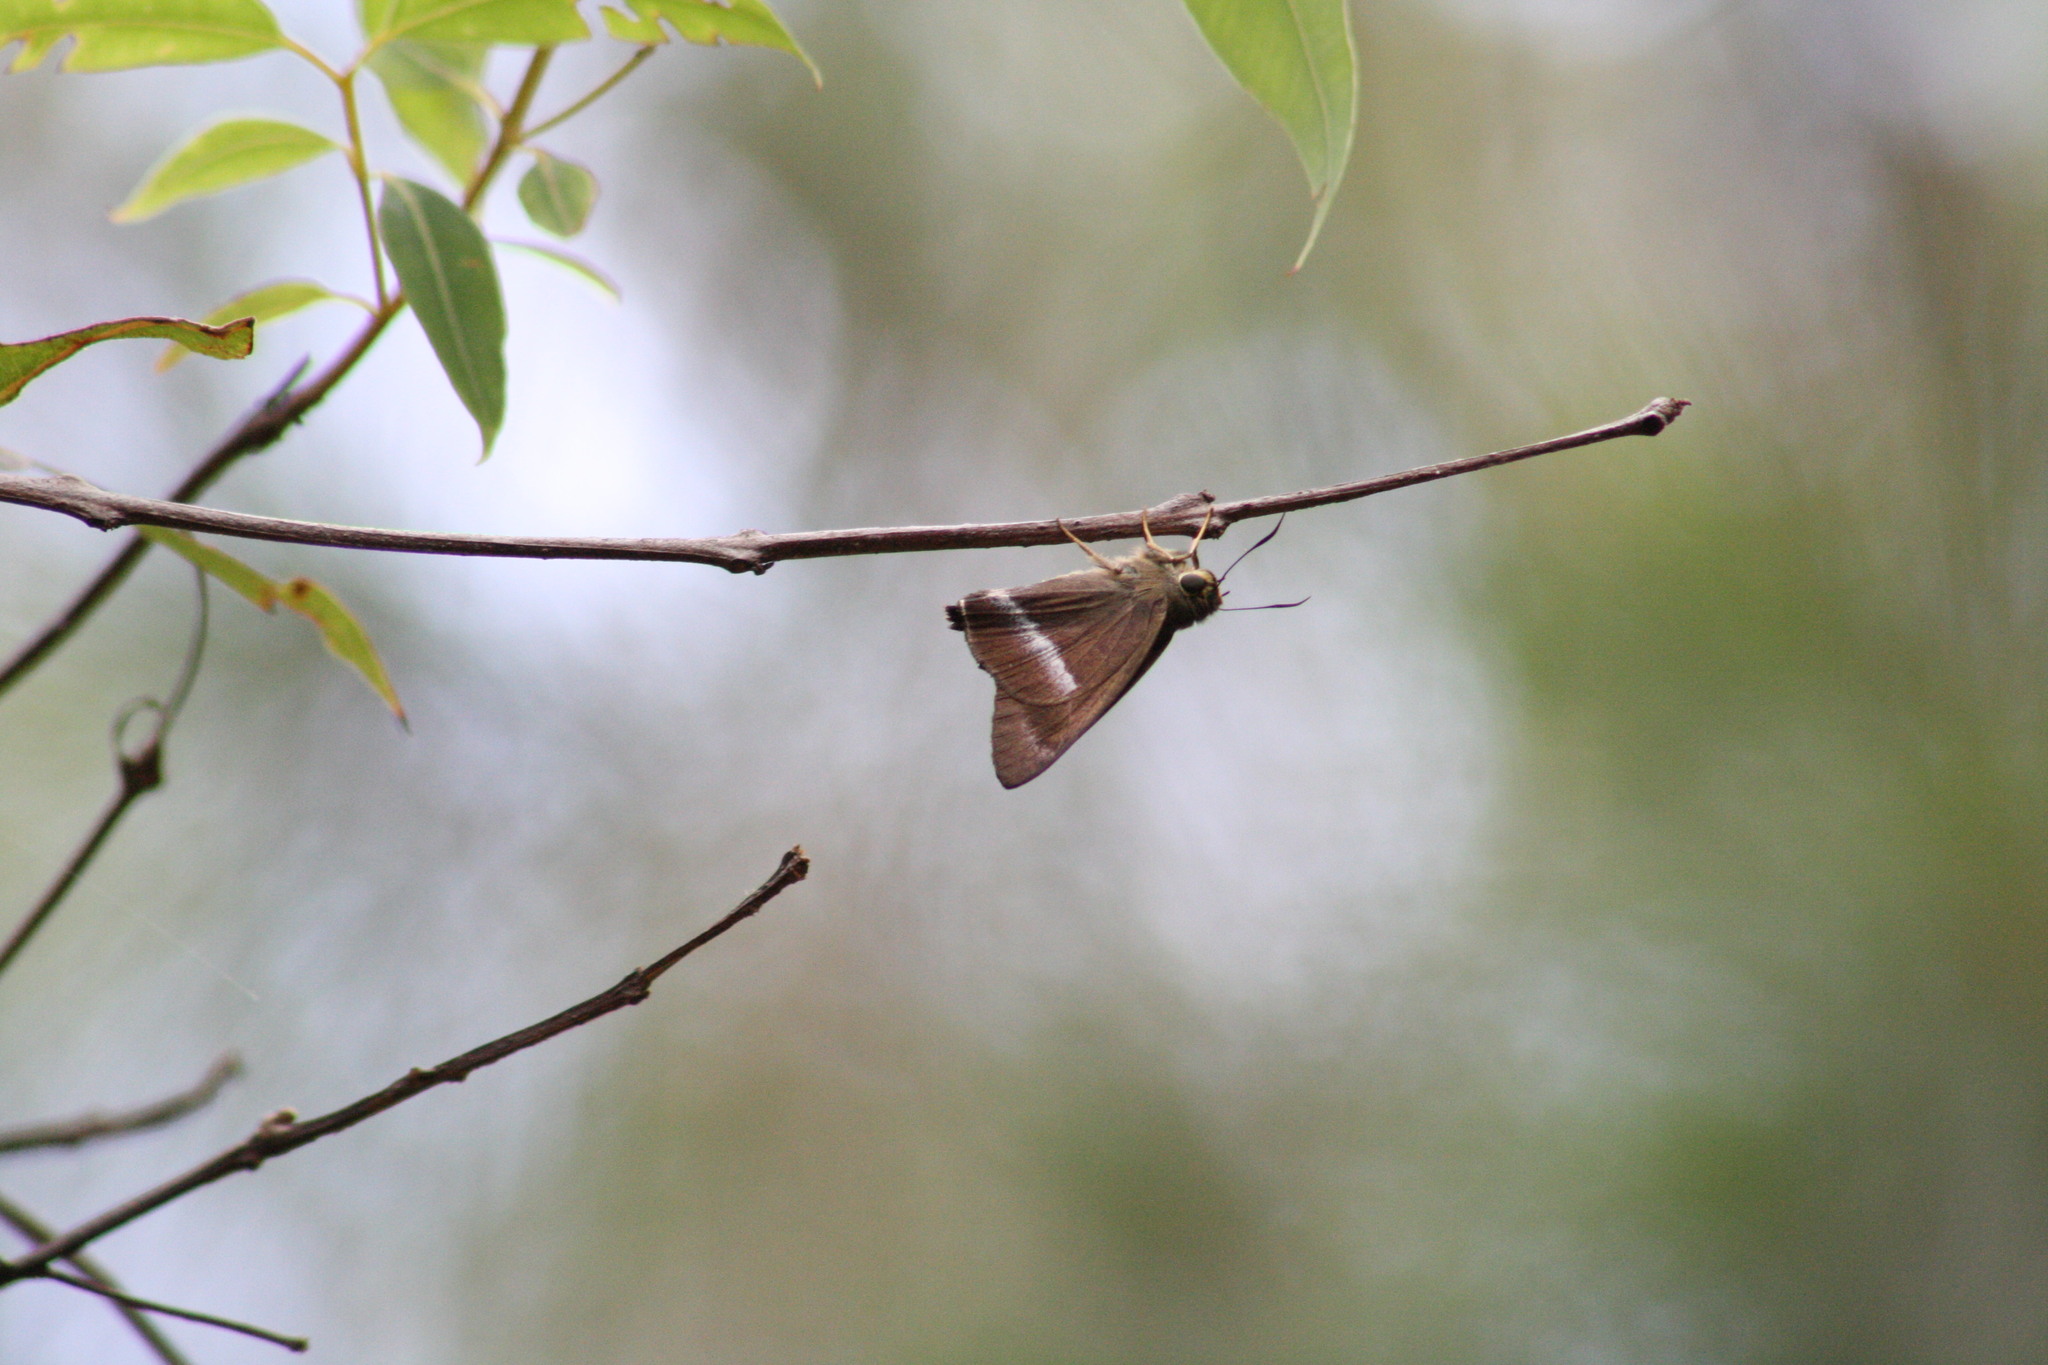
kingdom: Animalia
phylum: Arthropoda
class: Insecta
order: Lepidoptera
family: Hesperiidae
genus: Hasora
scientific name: Hasora chromus
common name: Common banded awl
